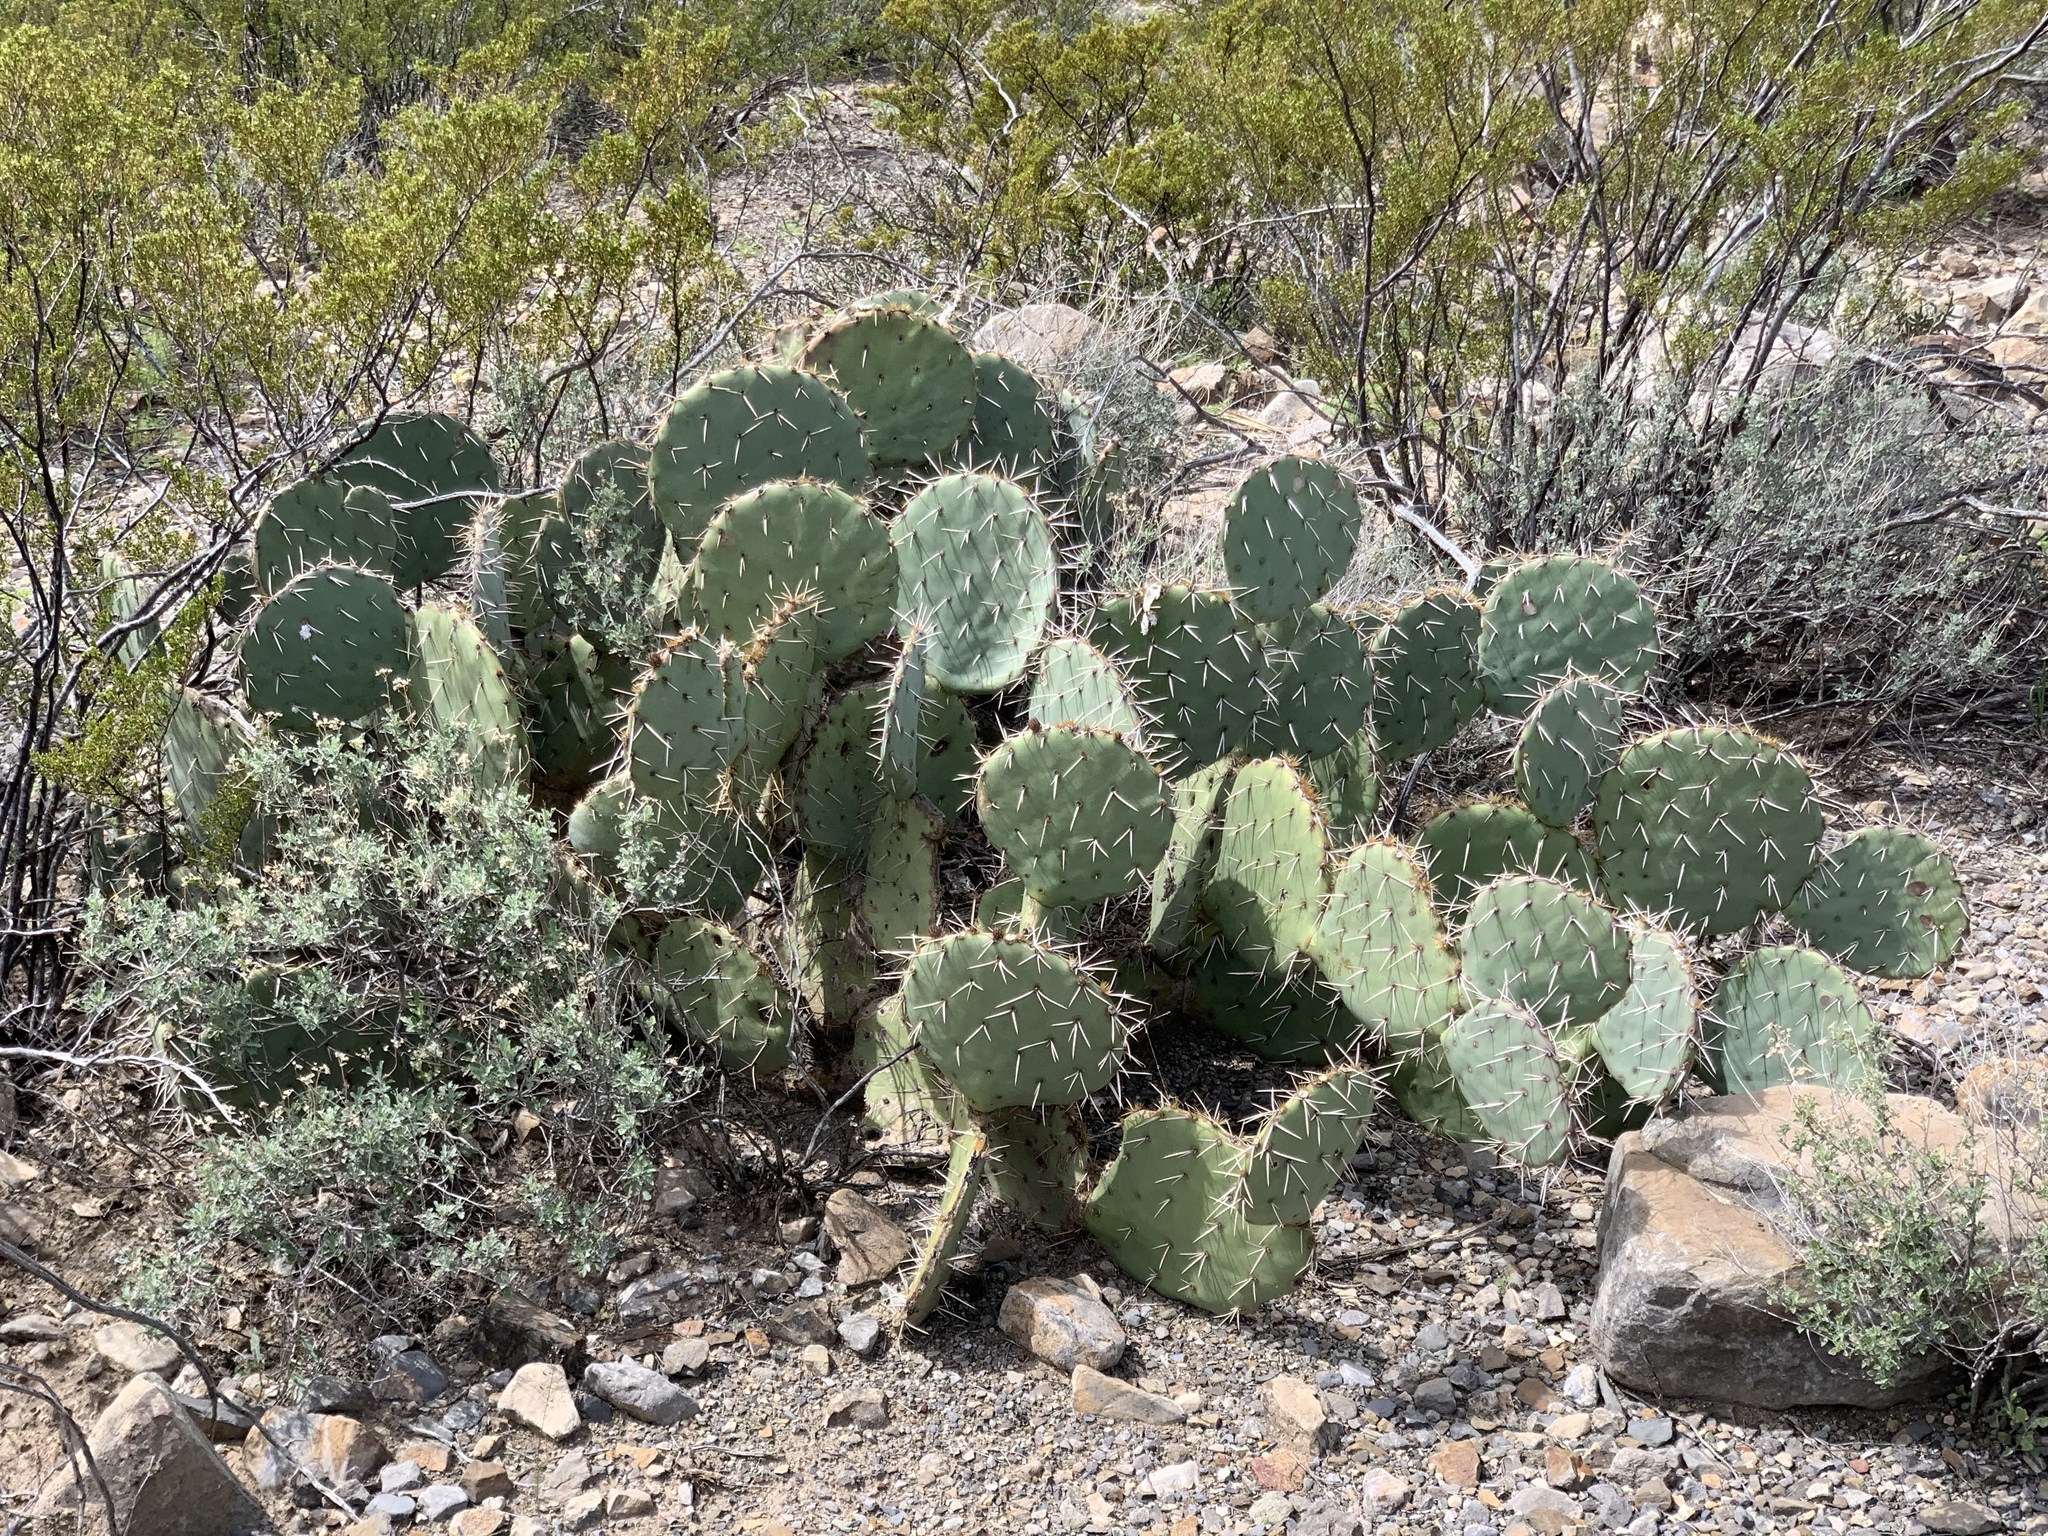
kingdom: Plantae
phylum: Tracheophyta
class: Magnoliopsida
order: Caryophyllales
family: Cactaceae
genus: Opuntia
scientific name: Opuntia engelmannii
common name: Cactus-apple
